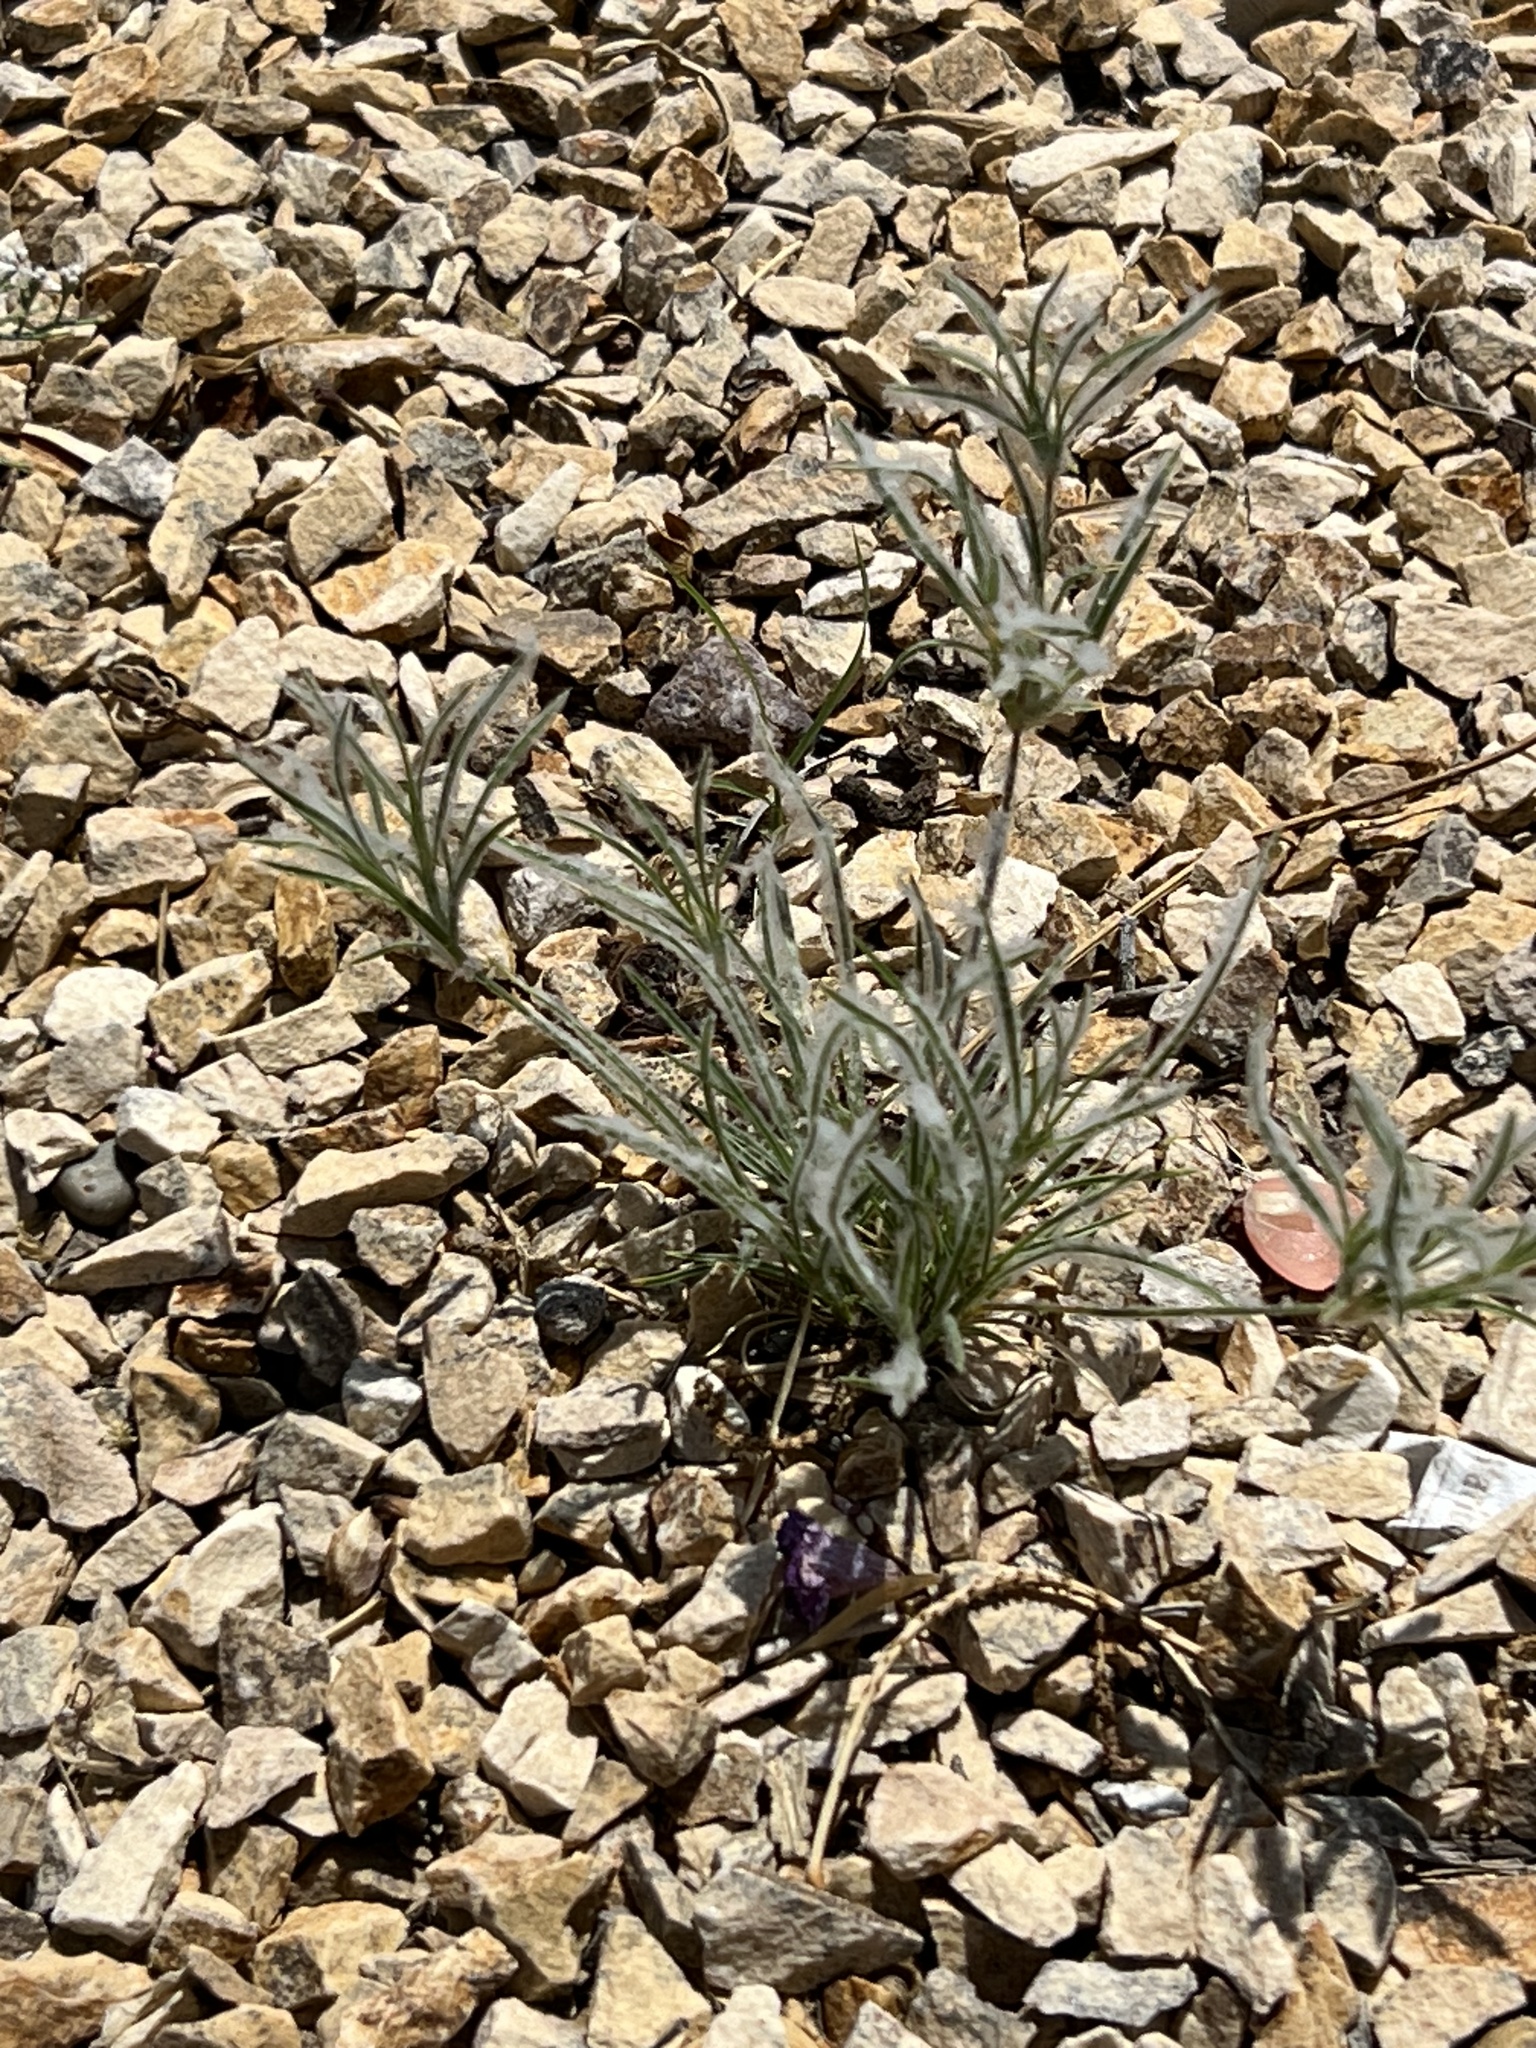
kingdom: Plantae
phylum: Tracheophyta
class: Liliopsida
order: Poales
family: Poaceae
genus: Dasyochloa
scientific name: Dasyochloa pulchella
